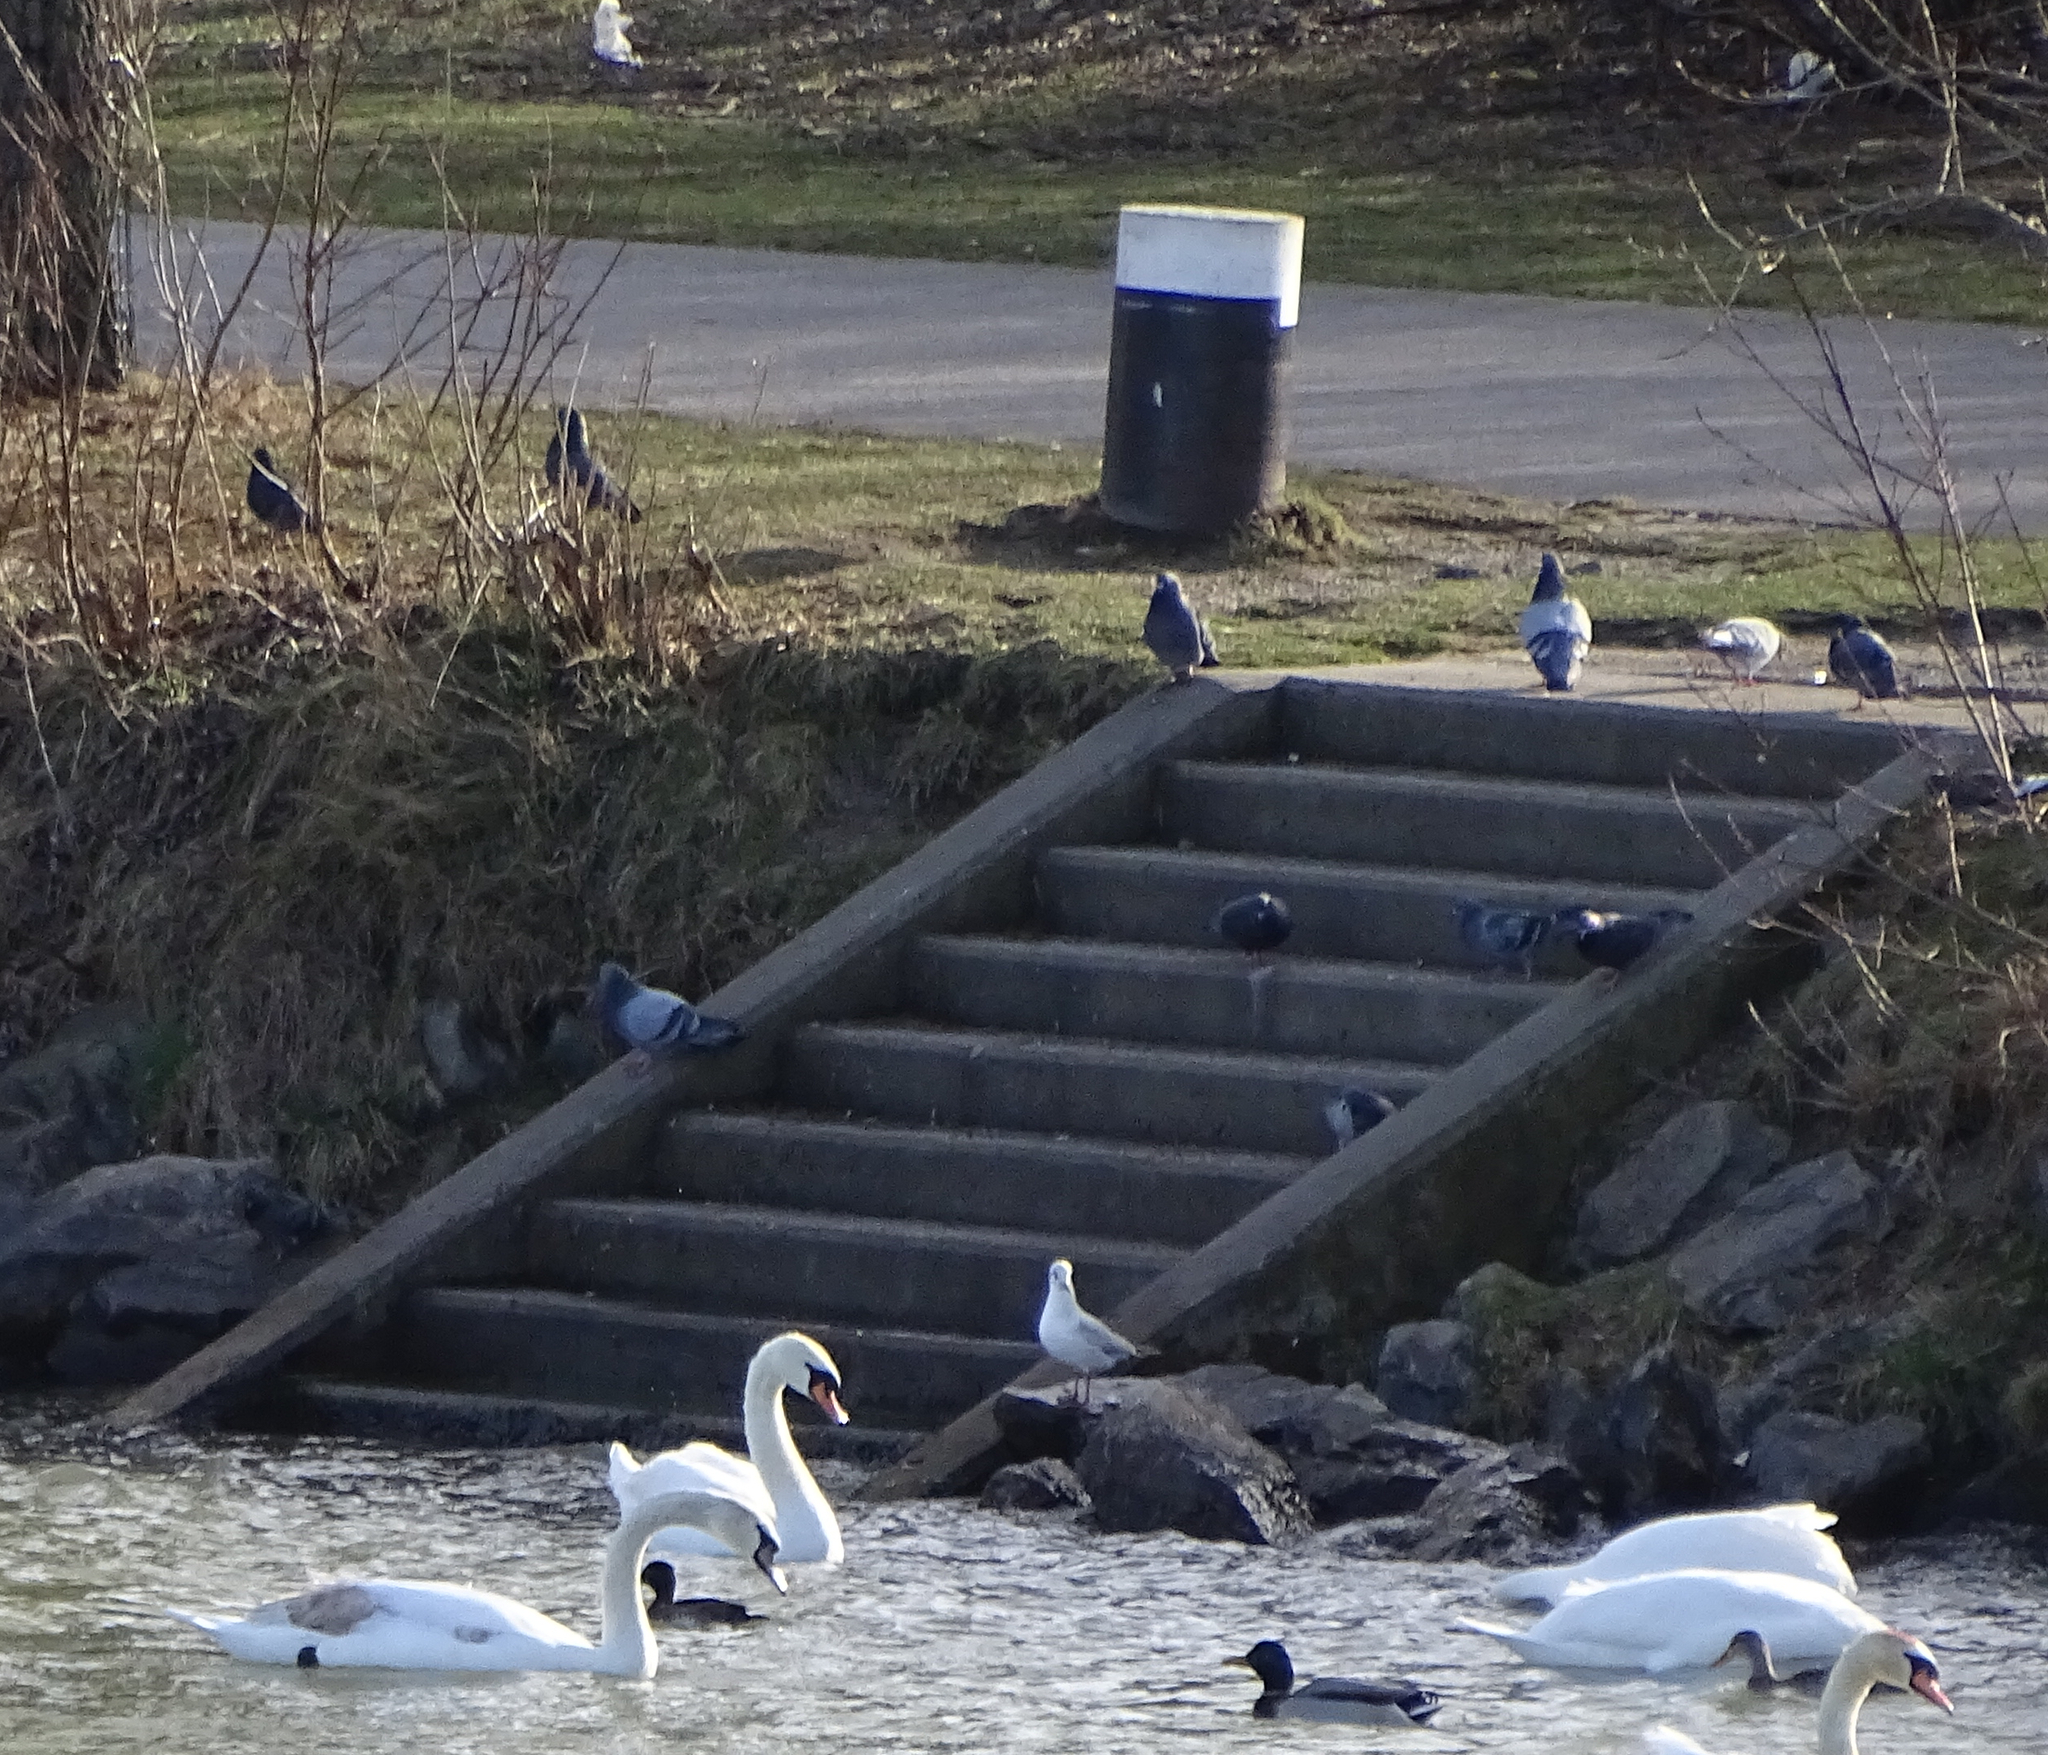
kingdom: Animalia
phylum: Chordata
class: Aves
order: Columbiformes
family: Columbidae
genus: Columba
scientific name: Columba livia
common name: Rock pigeon
